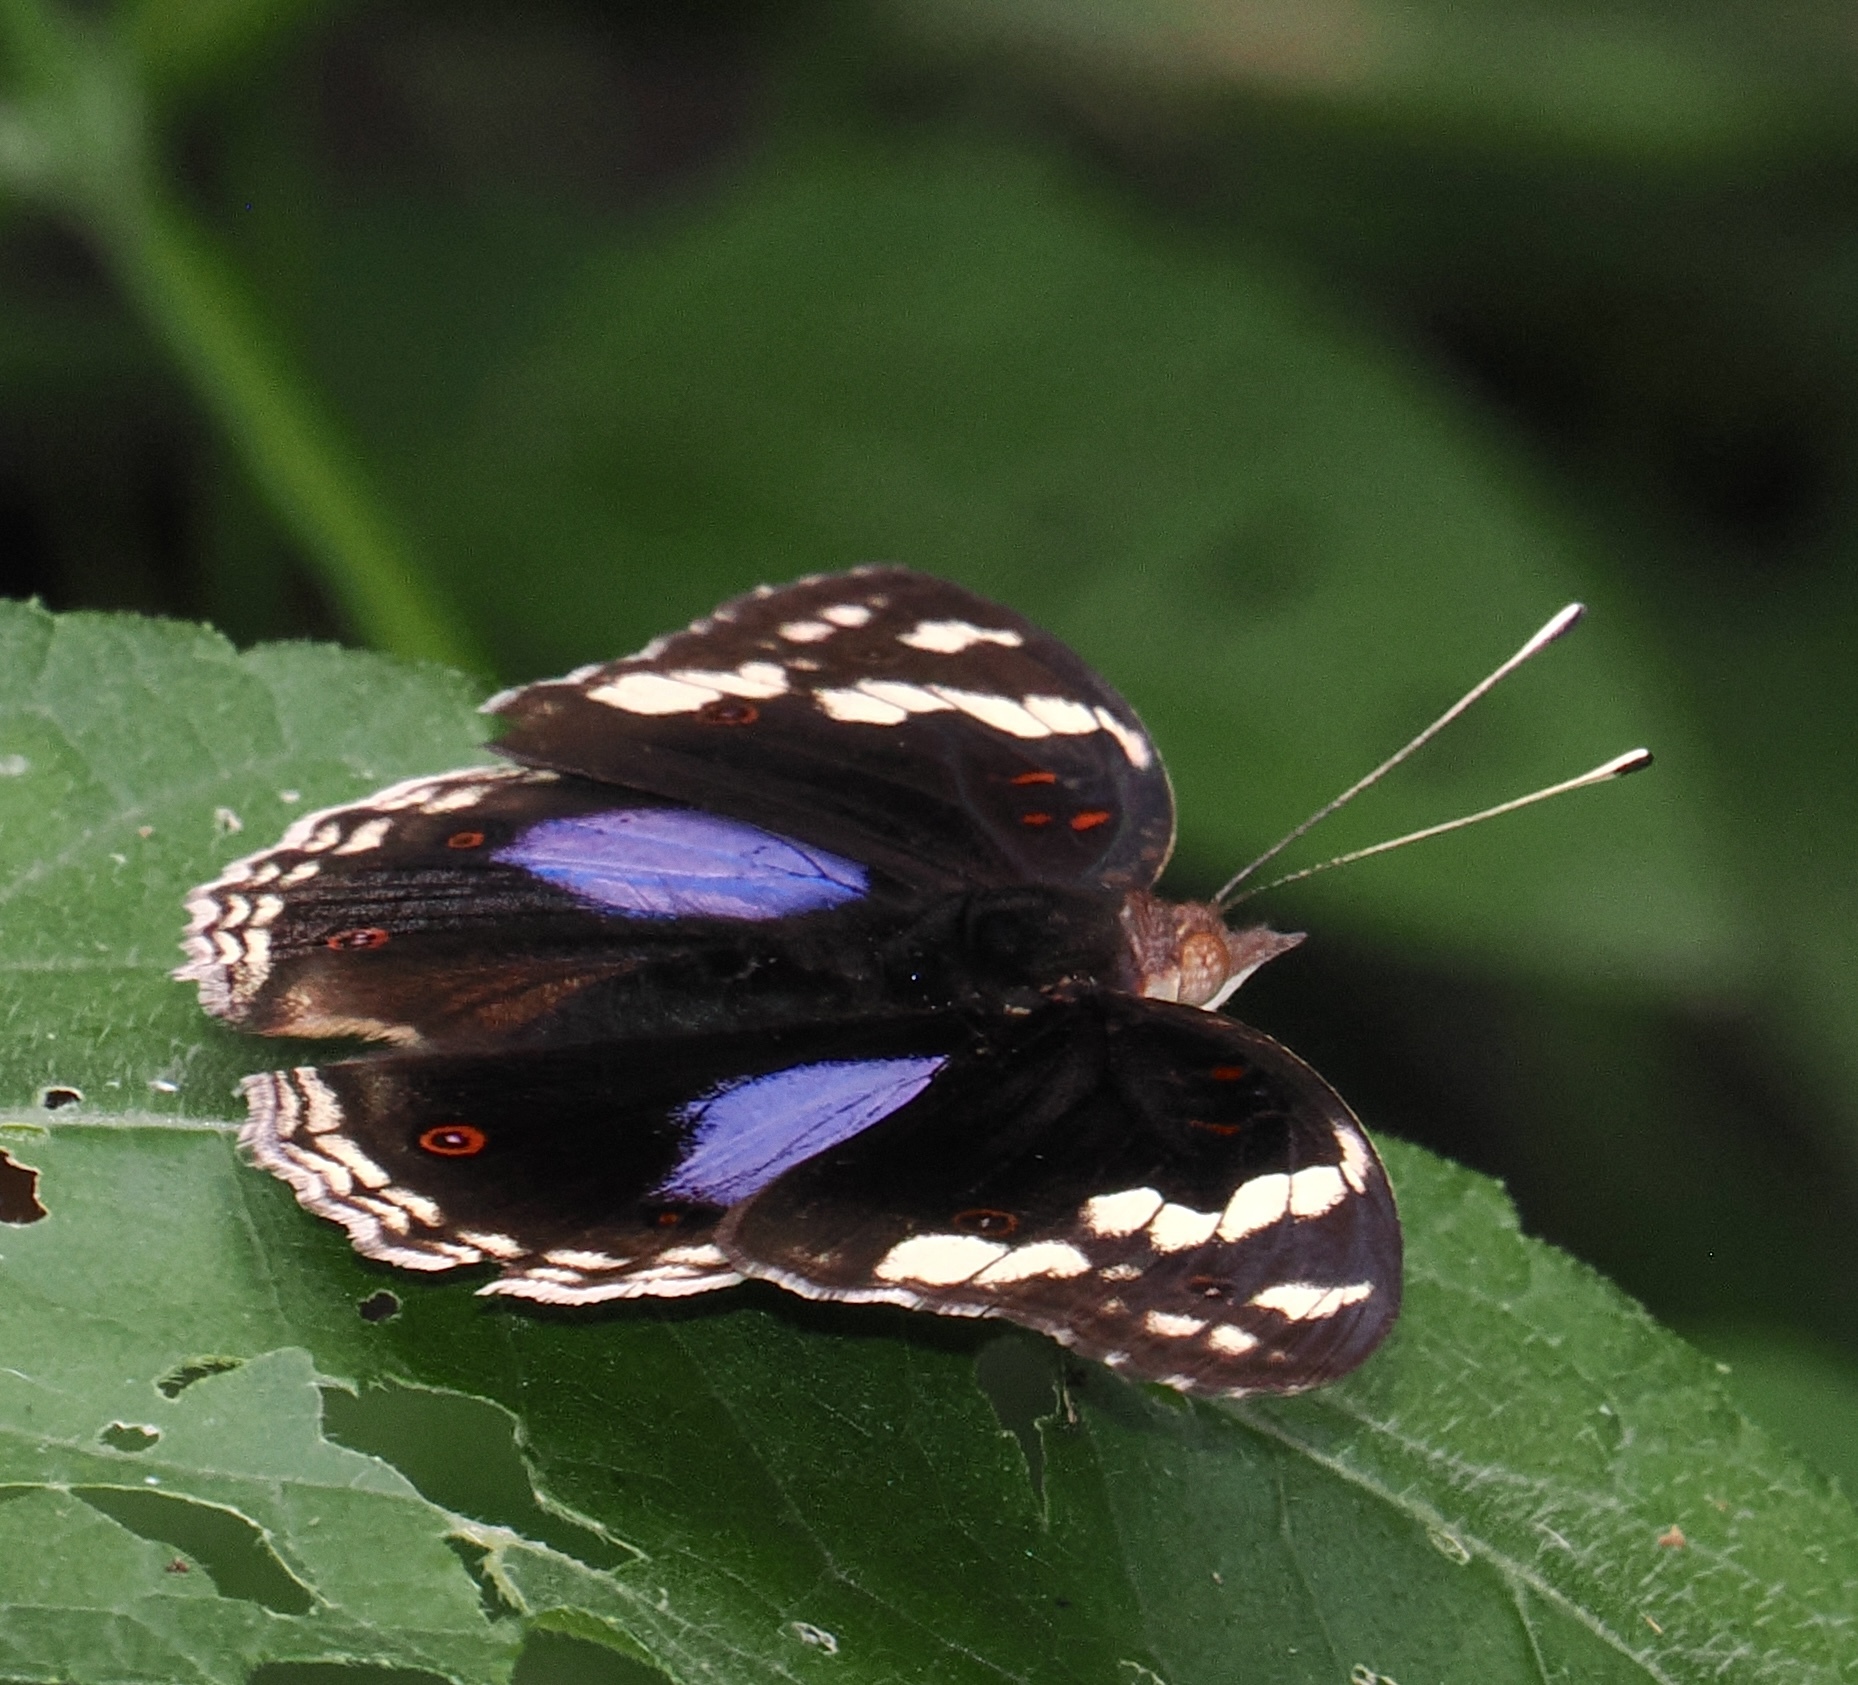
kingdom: Animalia
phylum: Arthropoda
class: Insecta
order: Lepidoptera
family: Nymphalidae
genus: Junonia
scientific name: Junonia oenone
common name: Dark blue pansy
